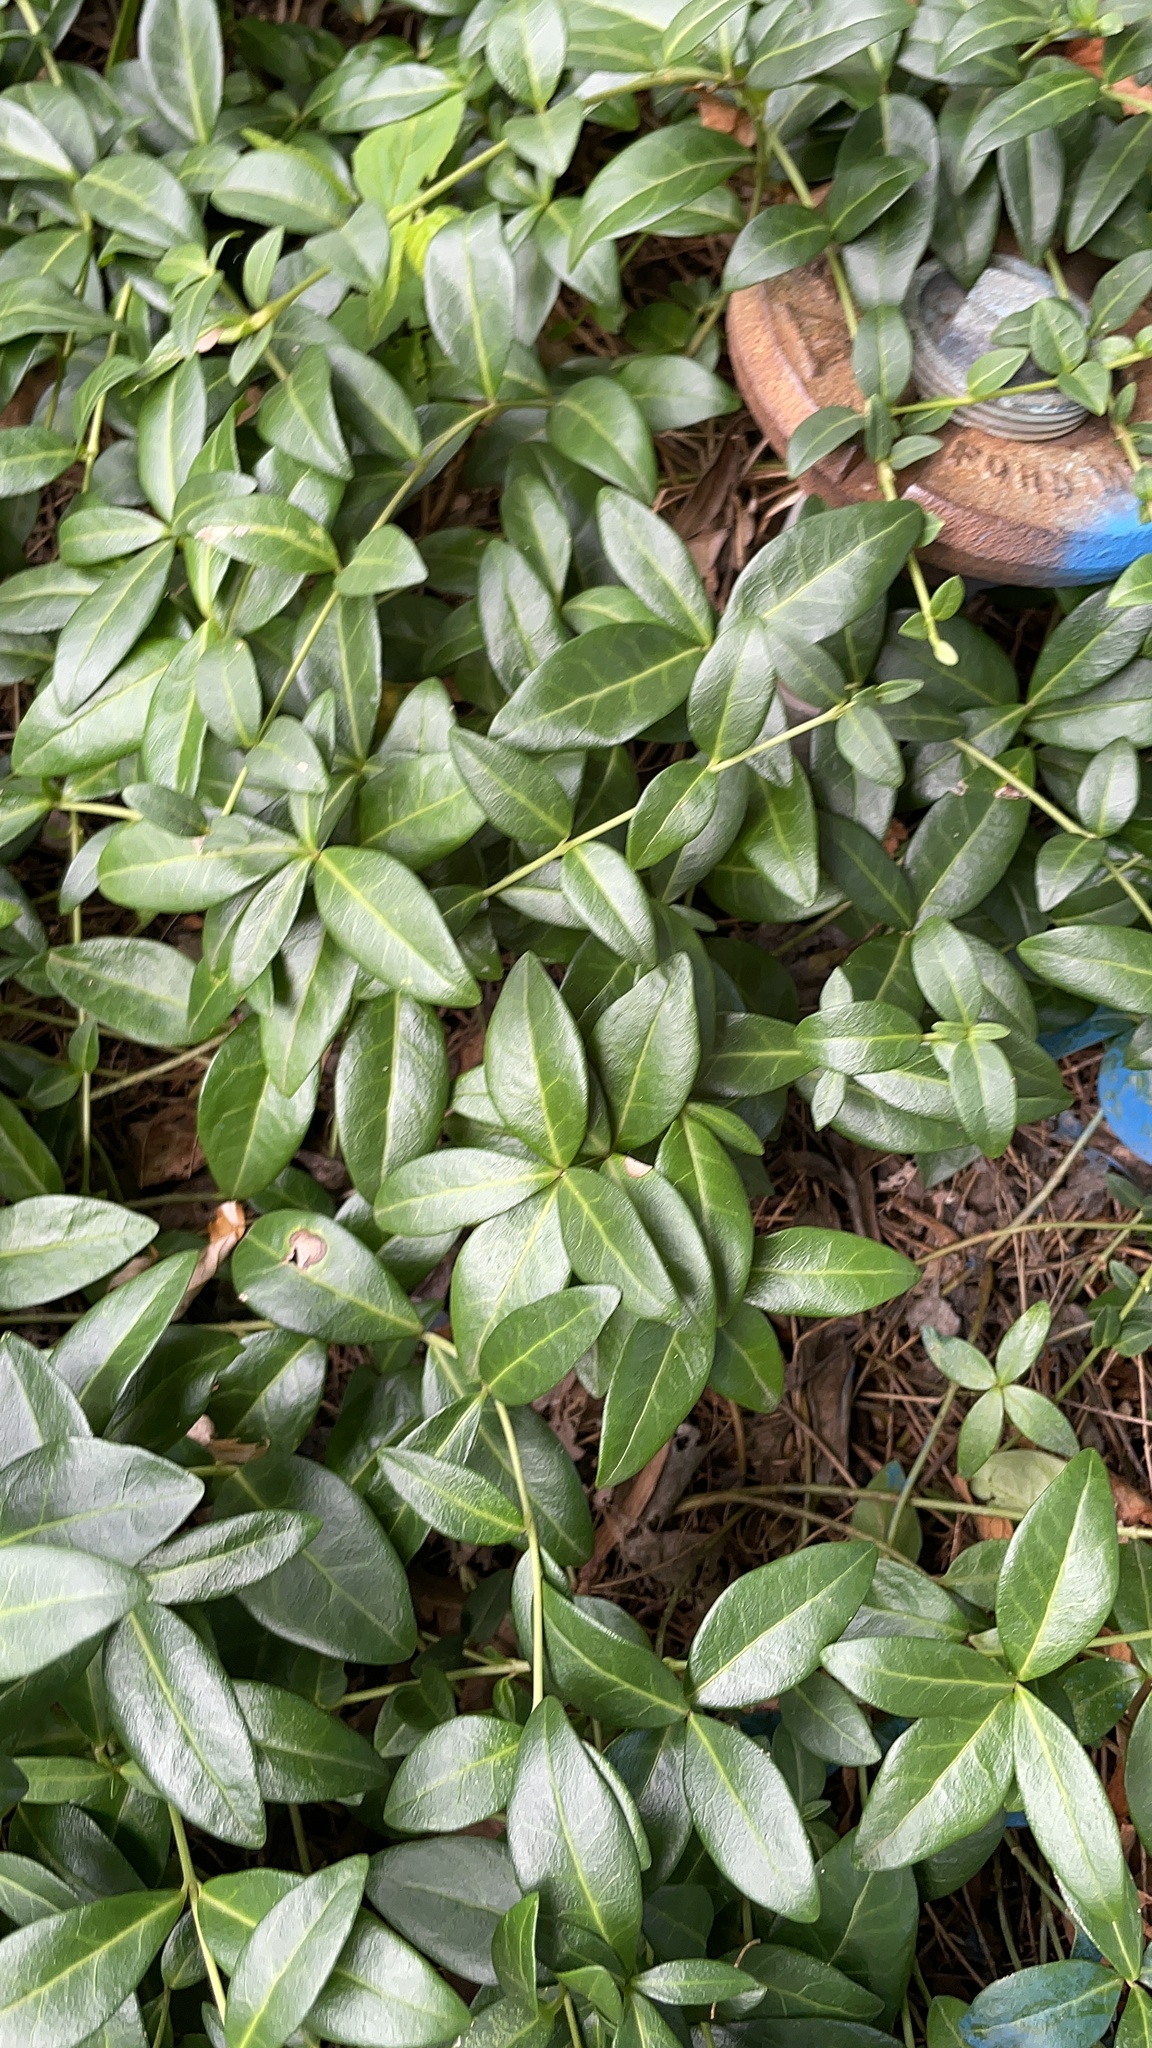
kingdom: Plantae
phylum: Tracheophyta
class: Magnoliopsida
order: Gentianales
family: Apocynaceae
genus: Vinca
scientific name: Vinca minor
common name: Lesser periwinkle
